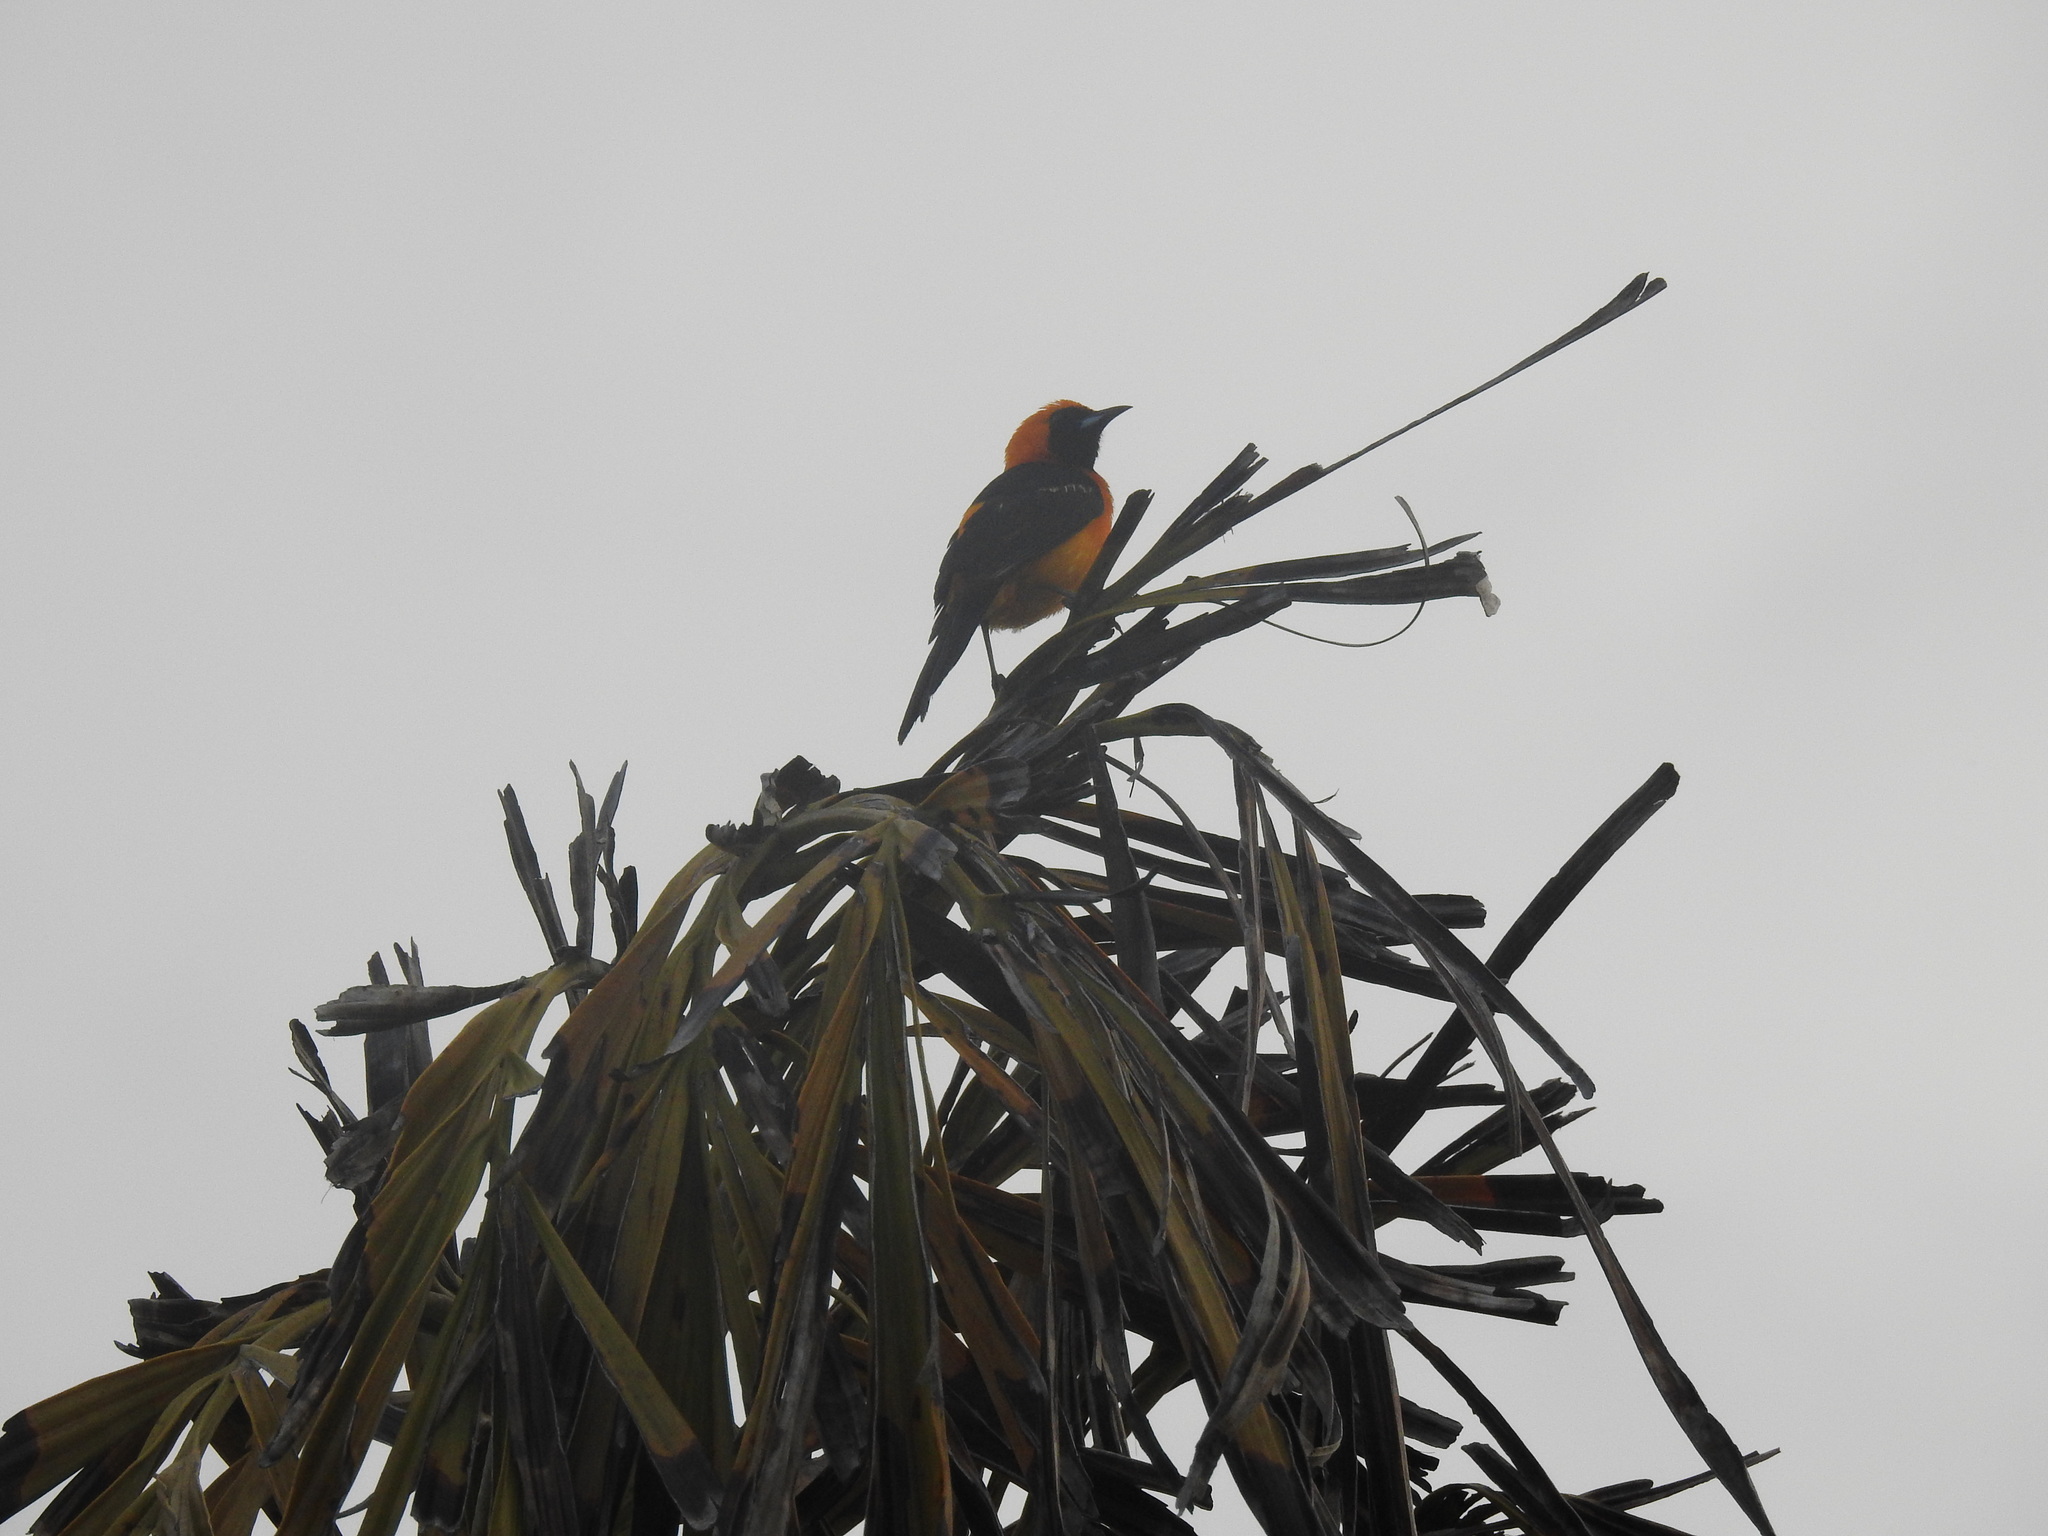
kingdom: Animalia
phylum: Chordata
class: Aves
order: Passeriformes
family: Icteridae
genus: Icterus
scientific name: Icterus cucullatus
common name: Hooded oriole
